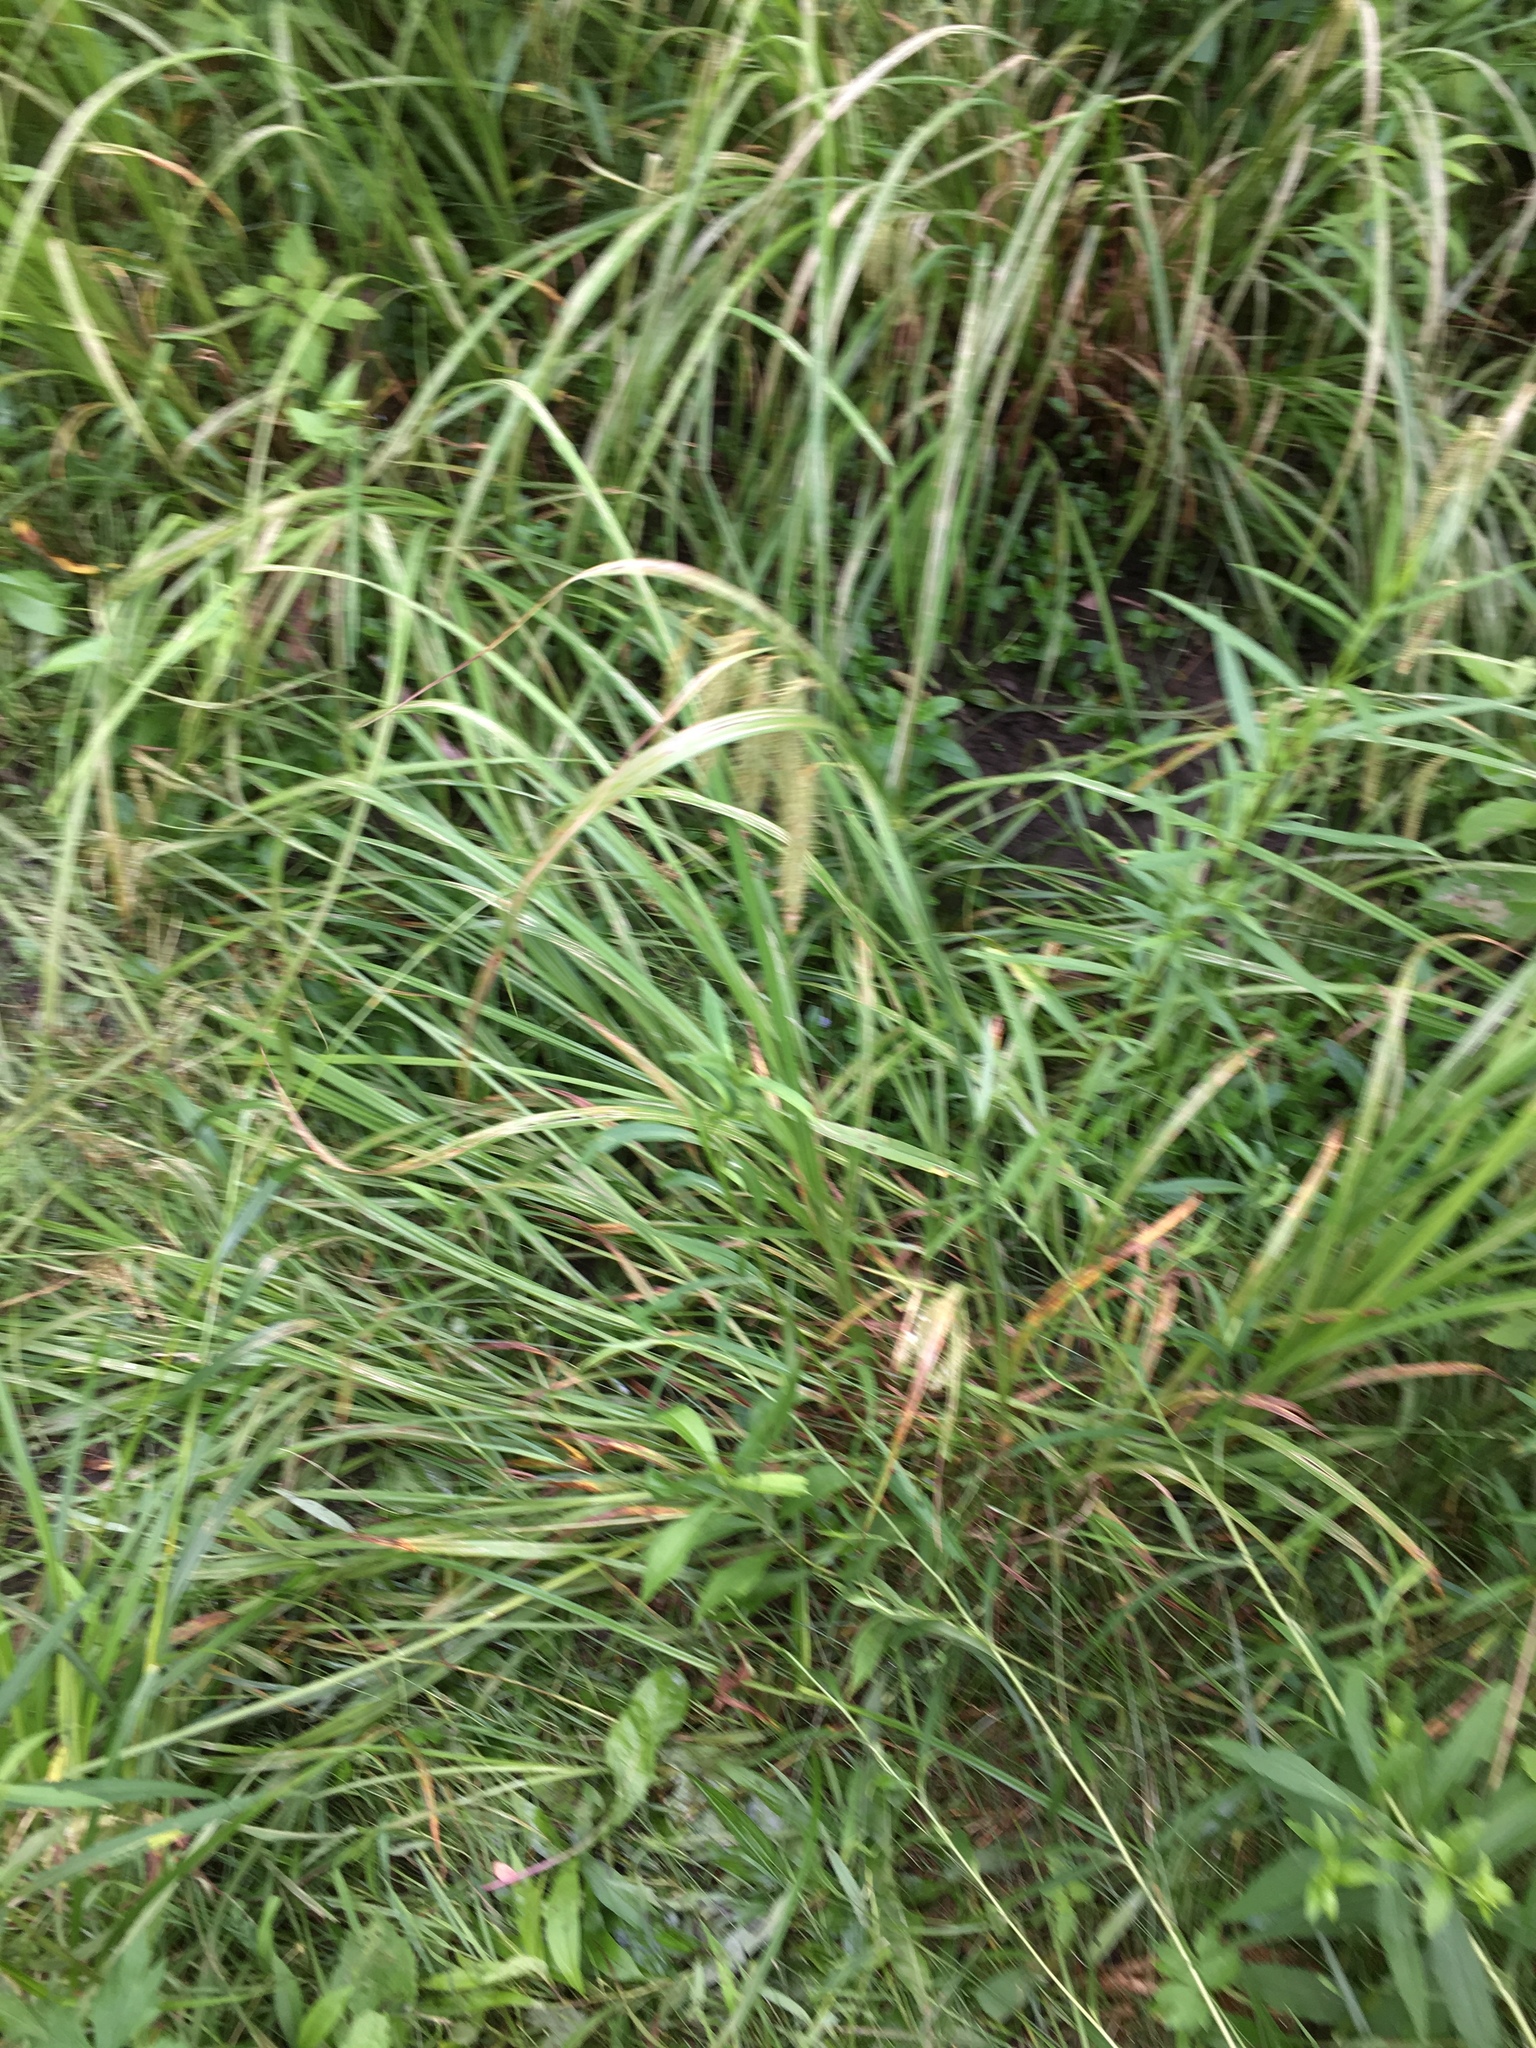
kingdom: Plantae
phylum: Tracheophyta
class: Liliopsida
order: Poales
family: Cyperaceae
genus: Carex
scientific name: Carex gynandra
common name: Nodding sedge
